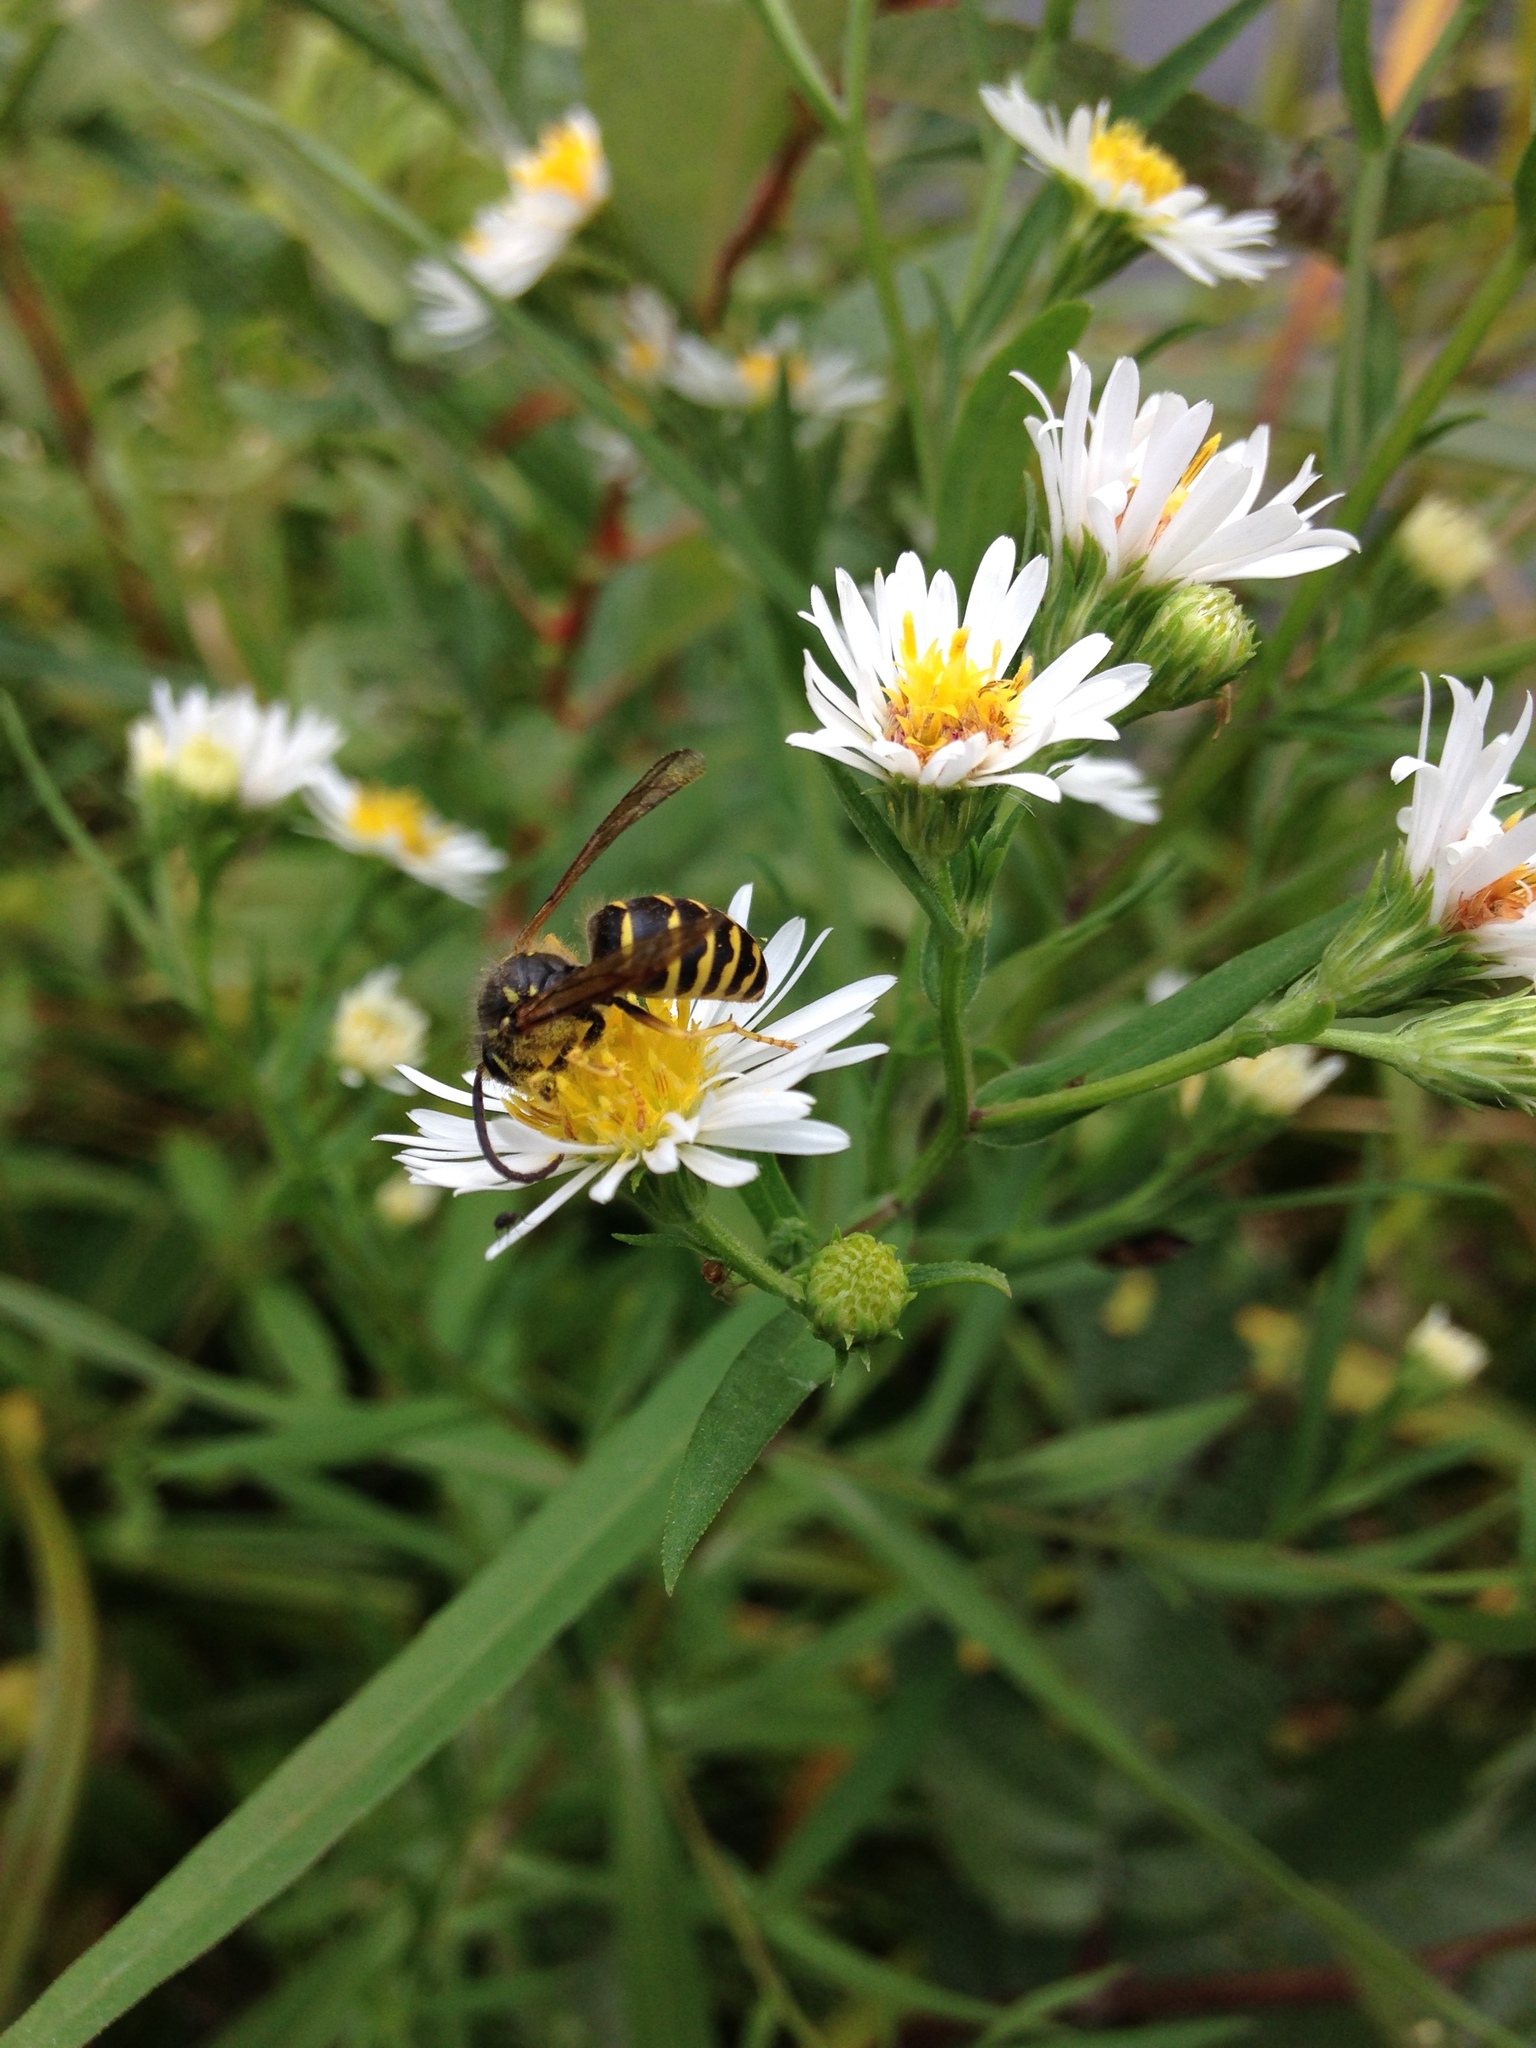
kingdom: Animalia
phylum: Arthropoda
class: Insecta
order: Hymenoptera
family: Vespidae
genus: Dolichovespula
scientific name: Dolichovespula arenaria
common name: Aerial yellowjacket
